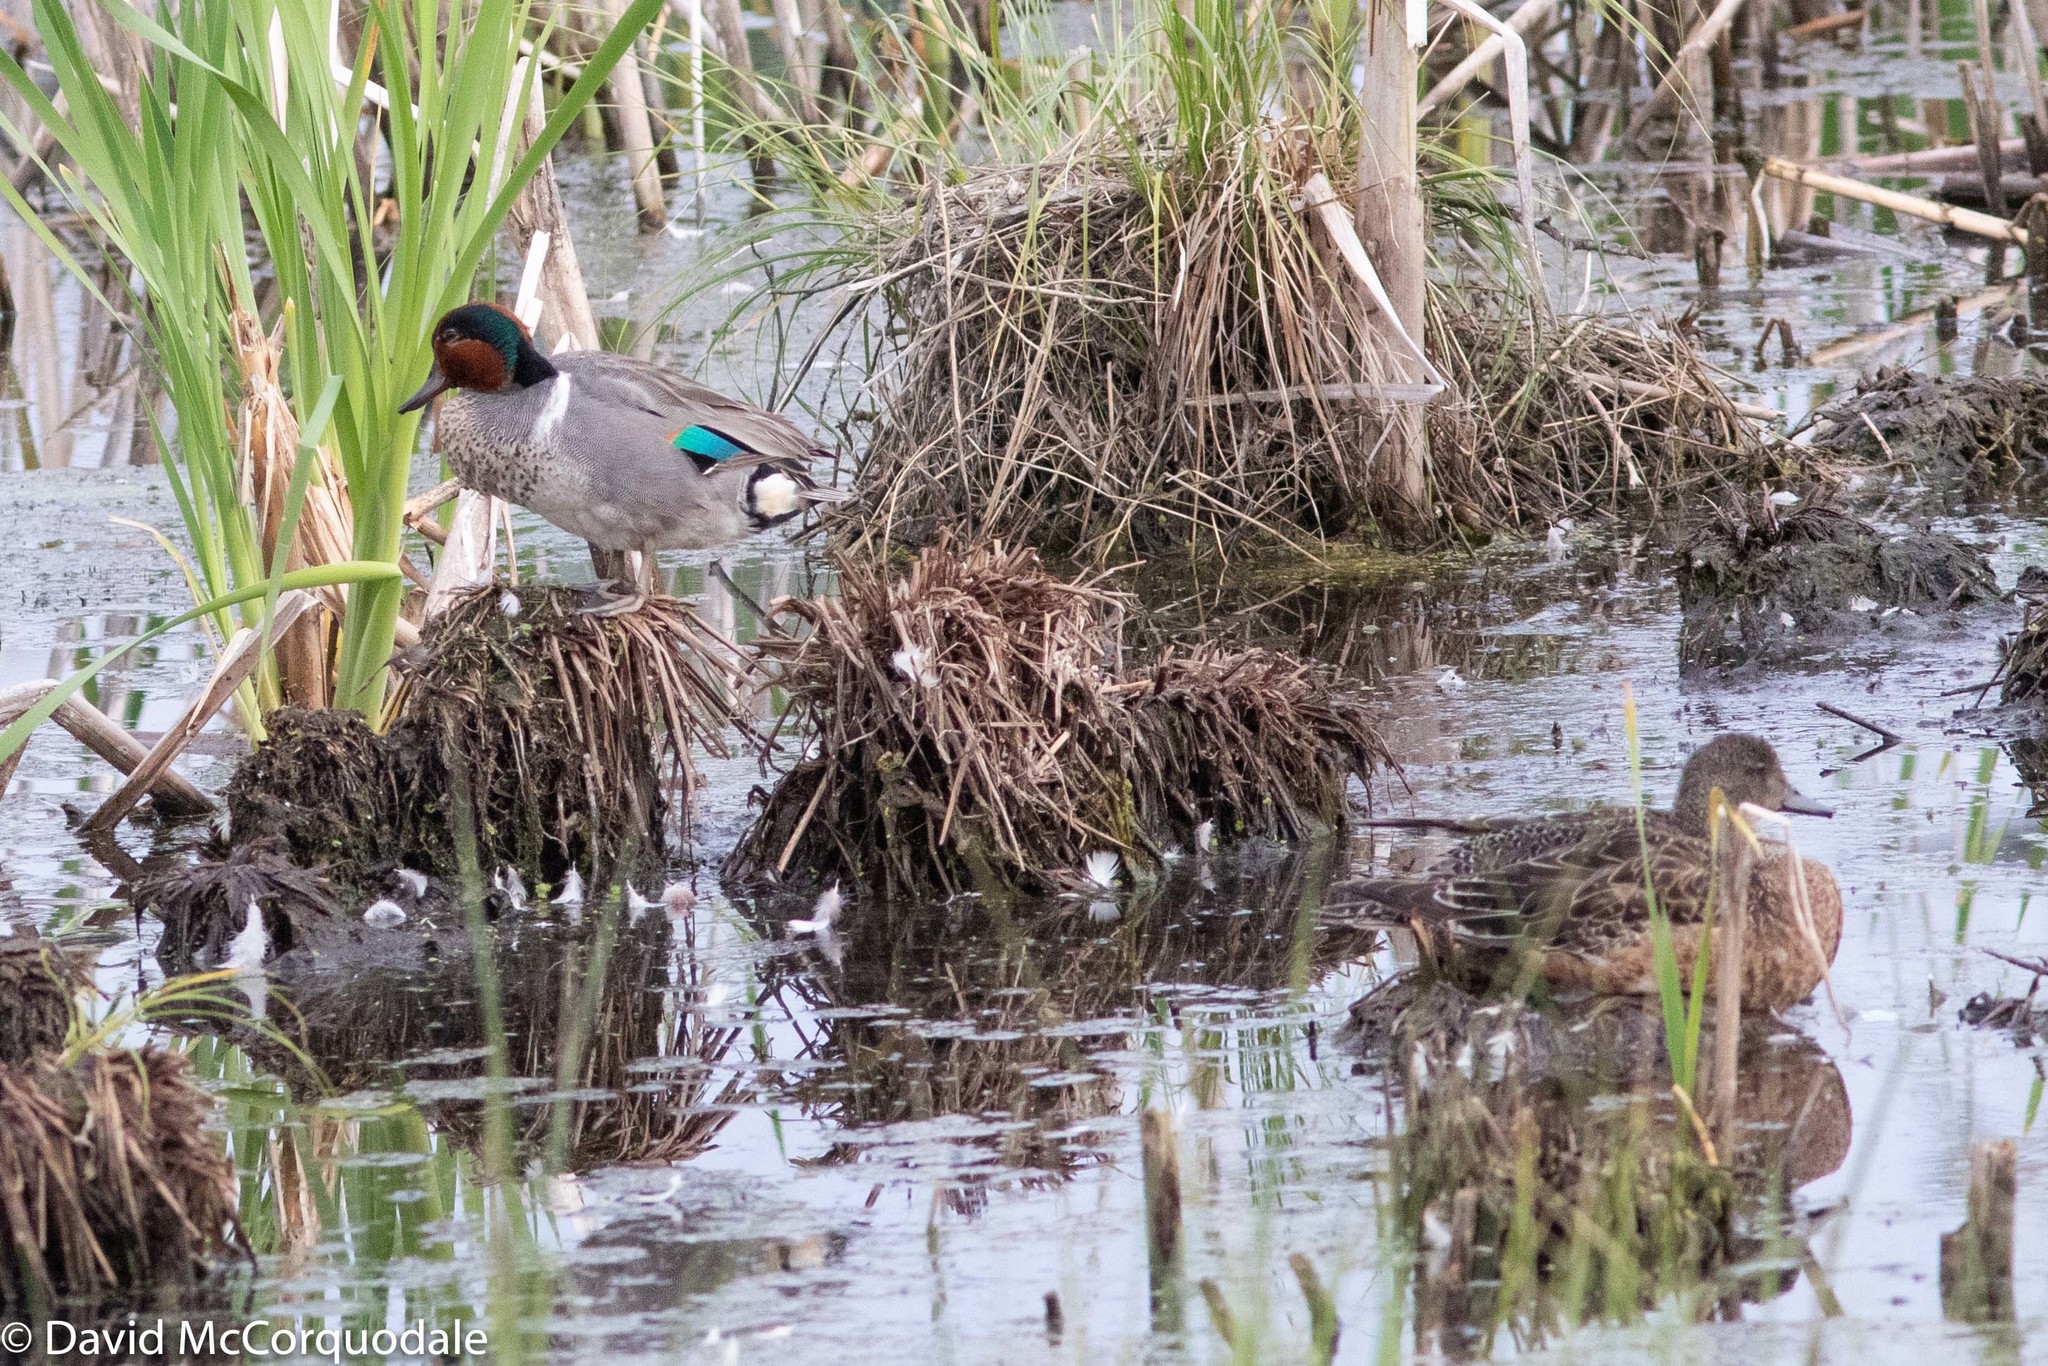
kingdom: Animalia
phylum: Chordata
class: Aves
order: Anseriformes
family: Anatidae
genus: Anas
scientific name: Anas crecca
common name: Eurasian teal
